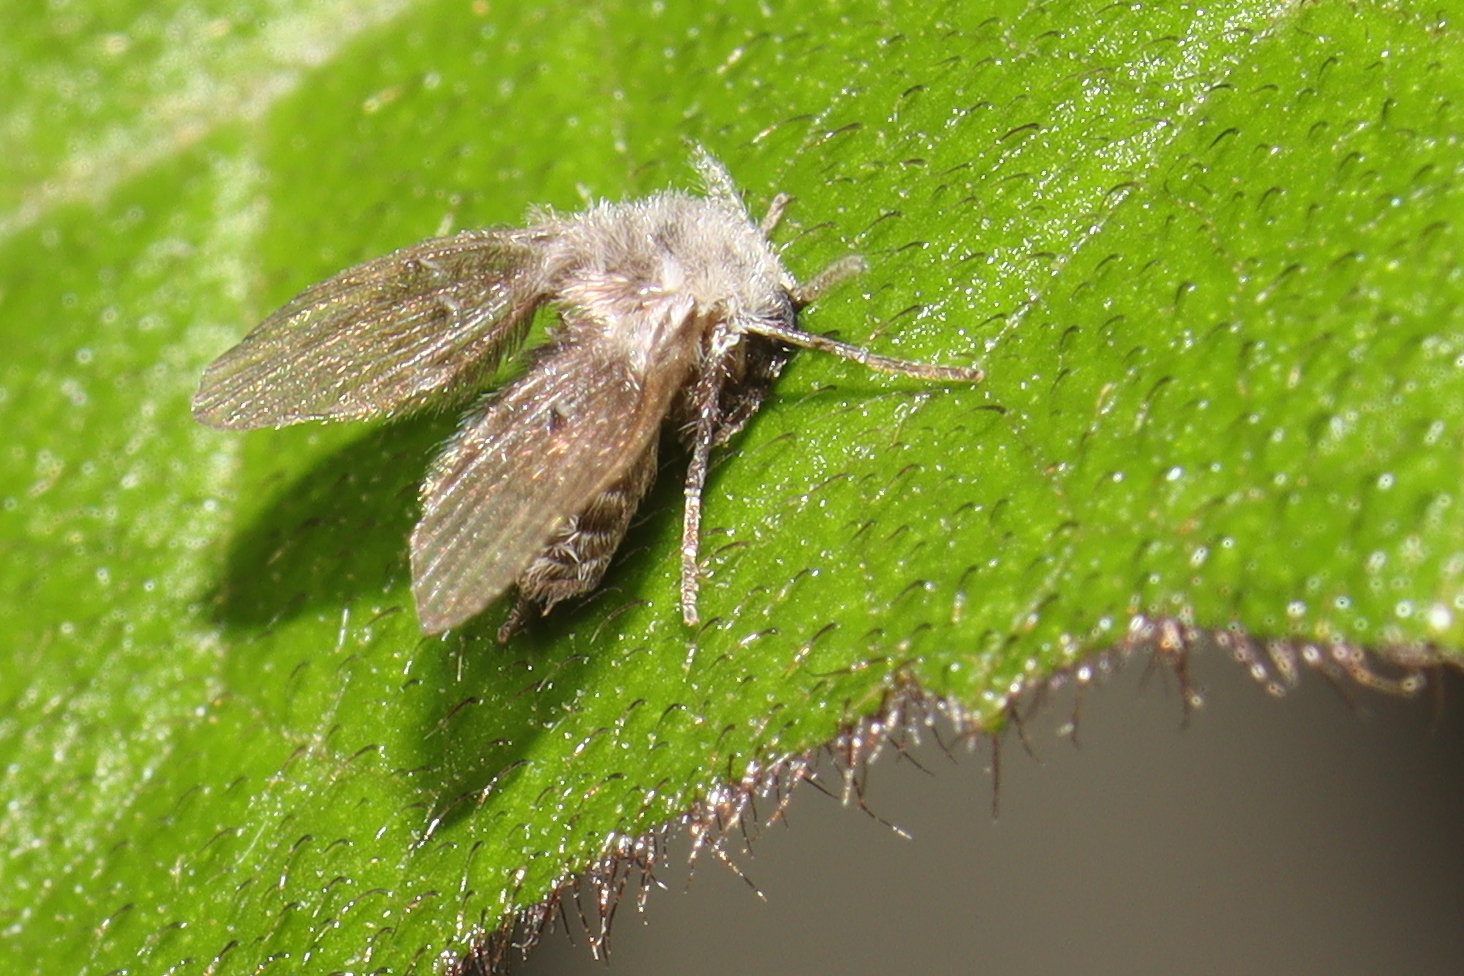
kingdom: Animalia
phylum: Arthropoda
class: Insecta
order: Diptera
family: Psychodidae
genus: Clogmia
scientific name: Clogmia albipunctatus
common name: White-spotted moth fly
